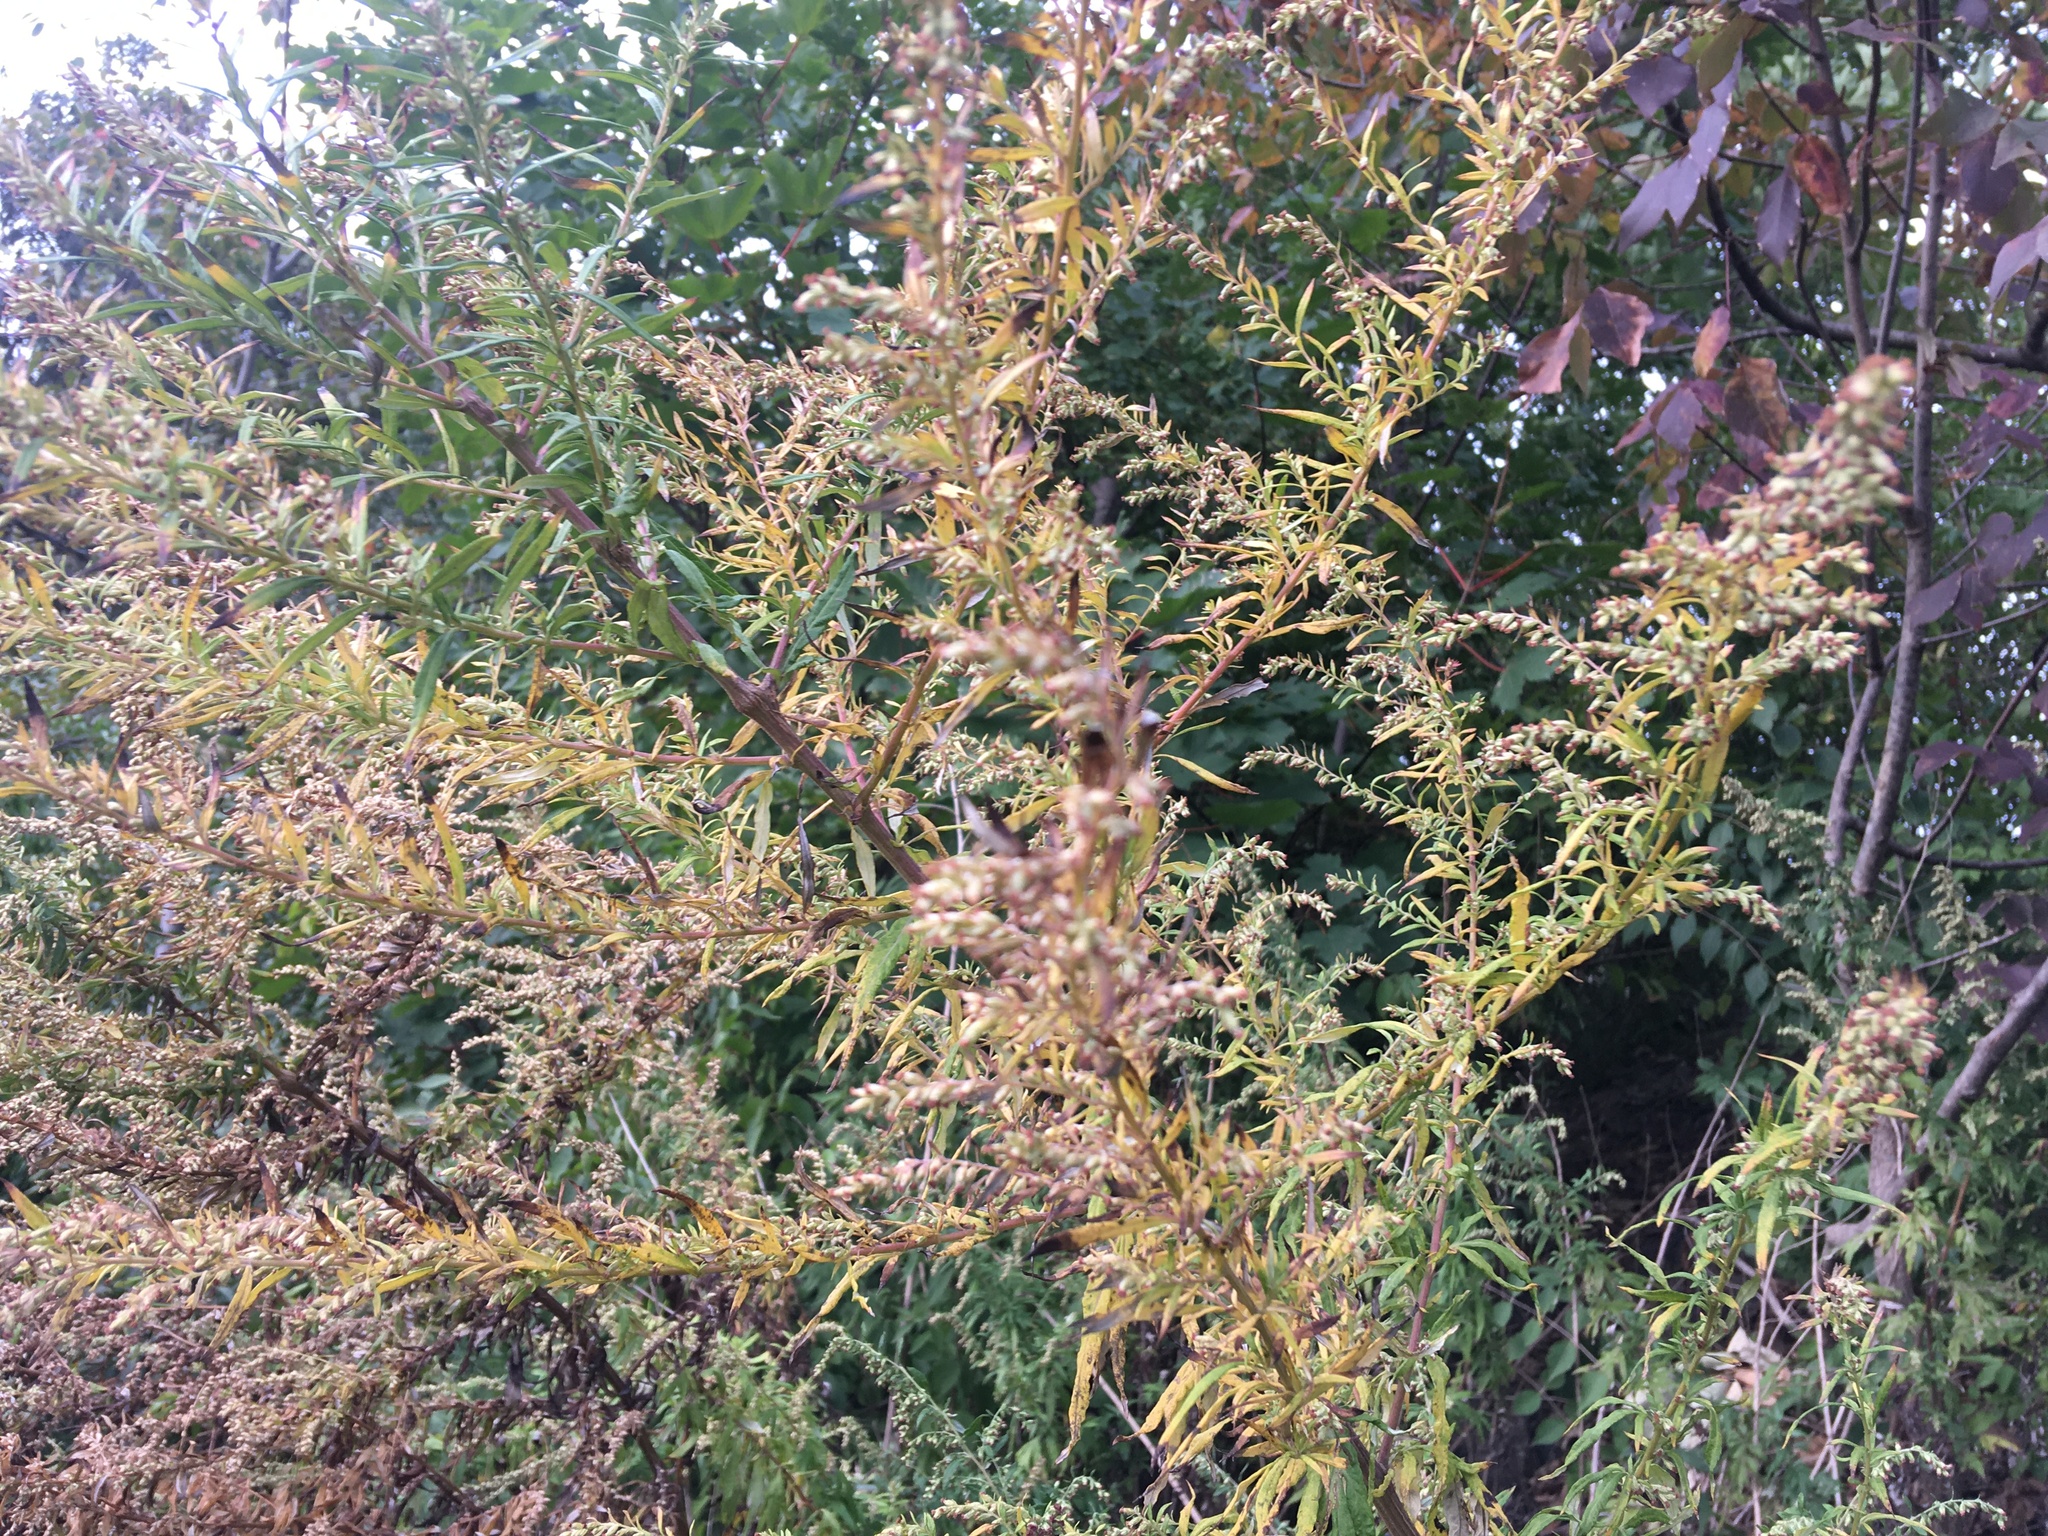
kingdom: Plantae
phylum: Tracheophyta
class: Magnoliopsida
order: Asterales
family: Asteraceae
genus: Artemisia
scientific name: Artemisia vulgaris
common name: Mugwort
